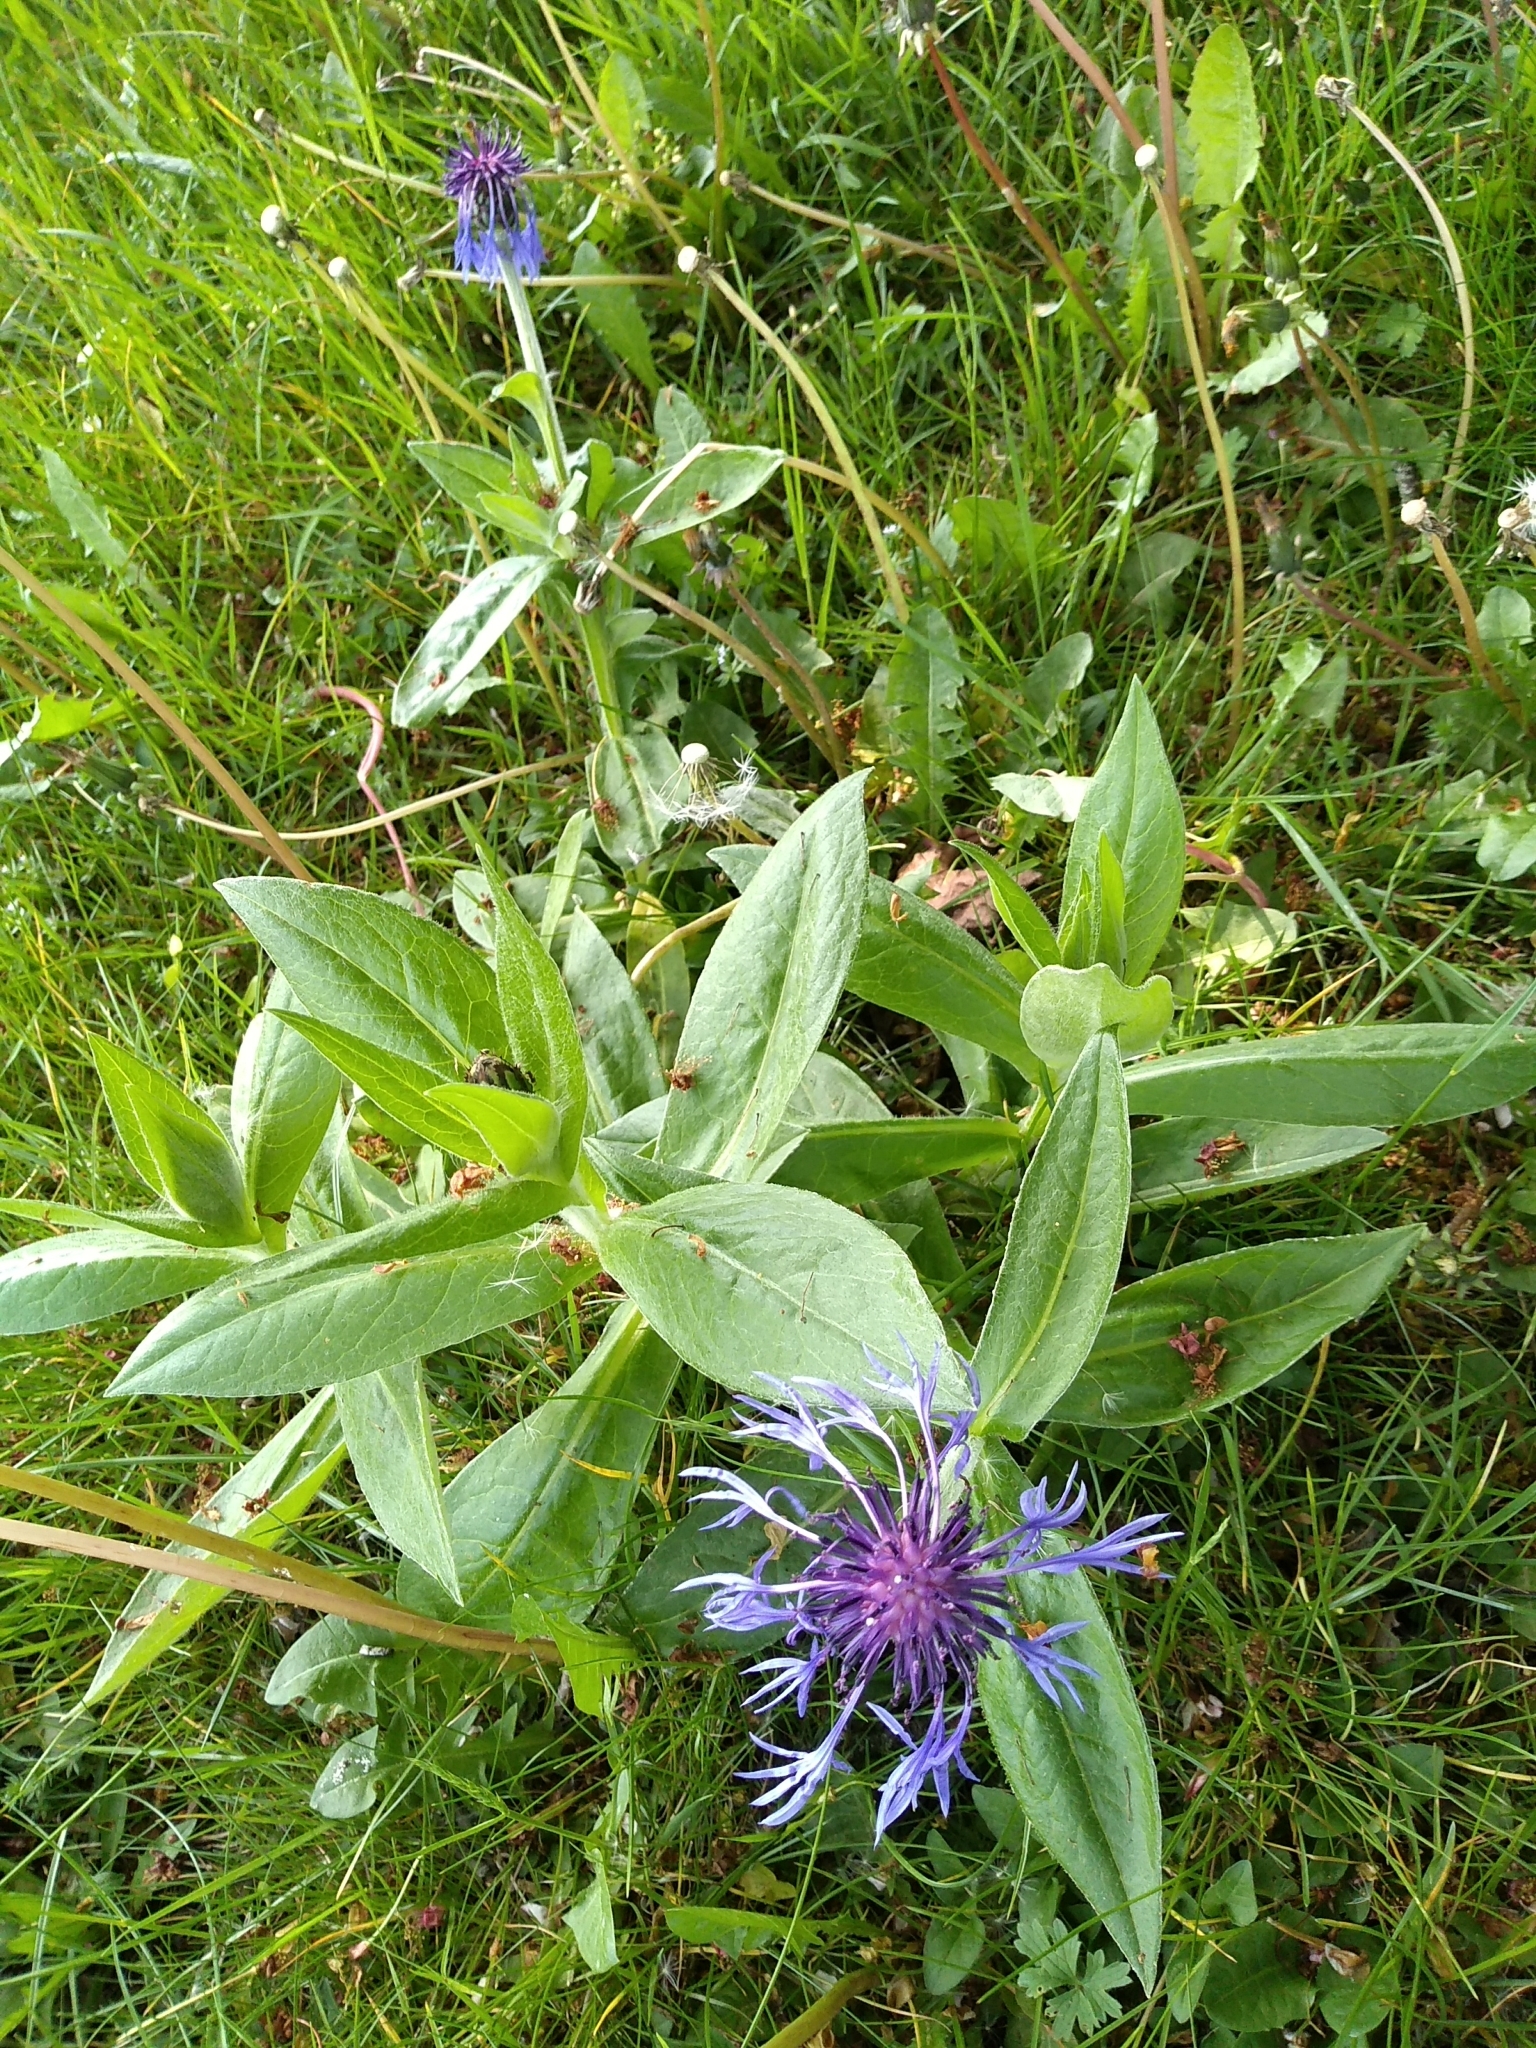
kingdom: Plantae
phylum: Tracheophyta
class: Magnoliopsida
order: Asterales
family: Asteraceae
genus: Centaurea
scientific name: Centaurea montana
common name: Perennial cornflower
